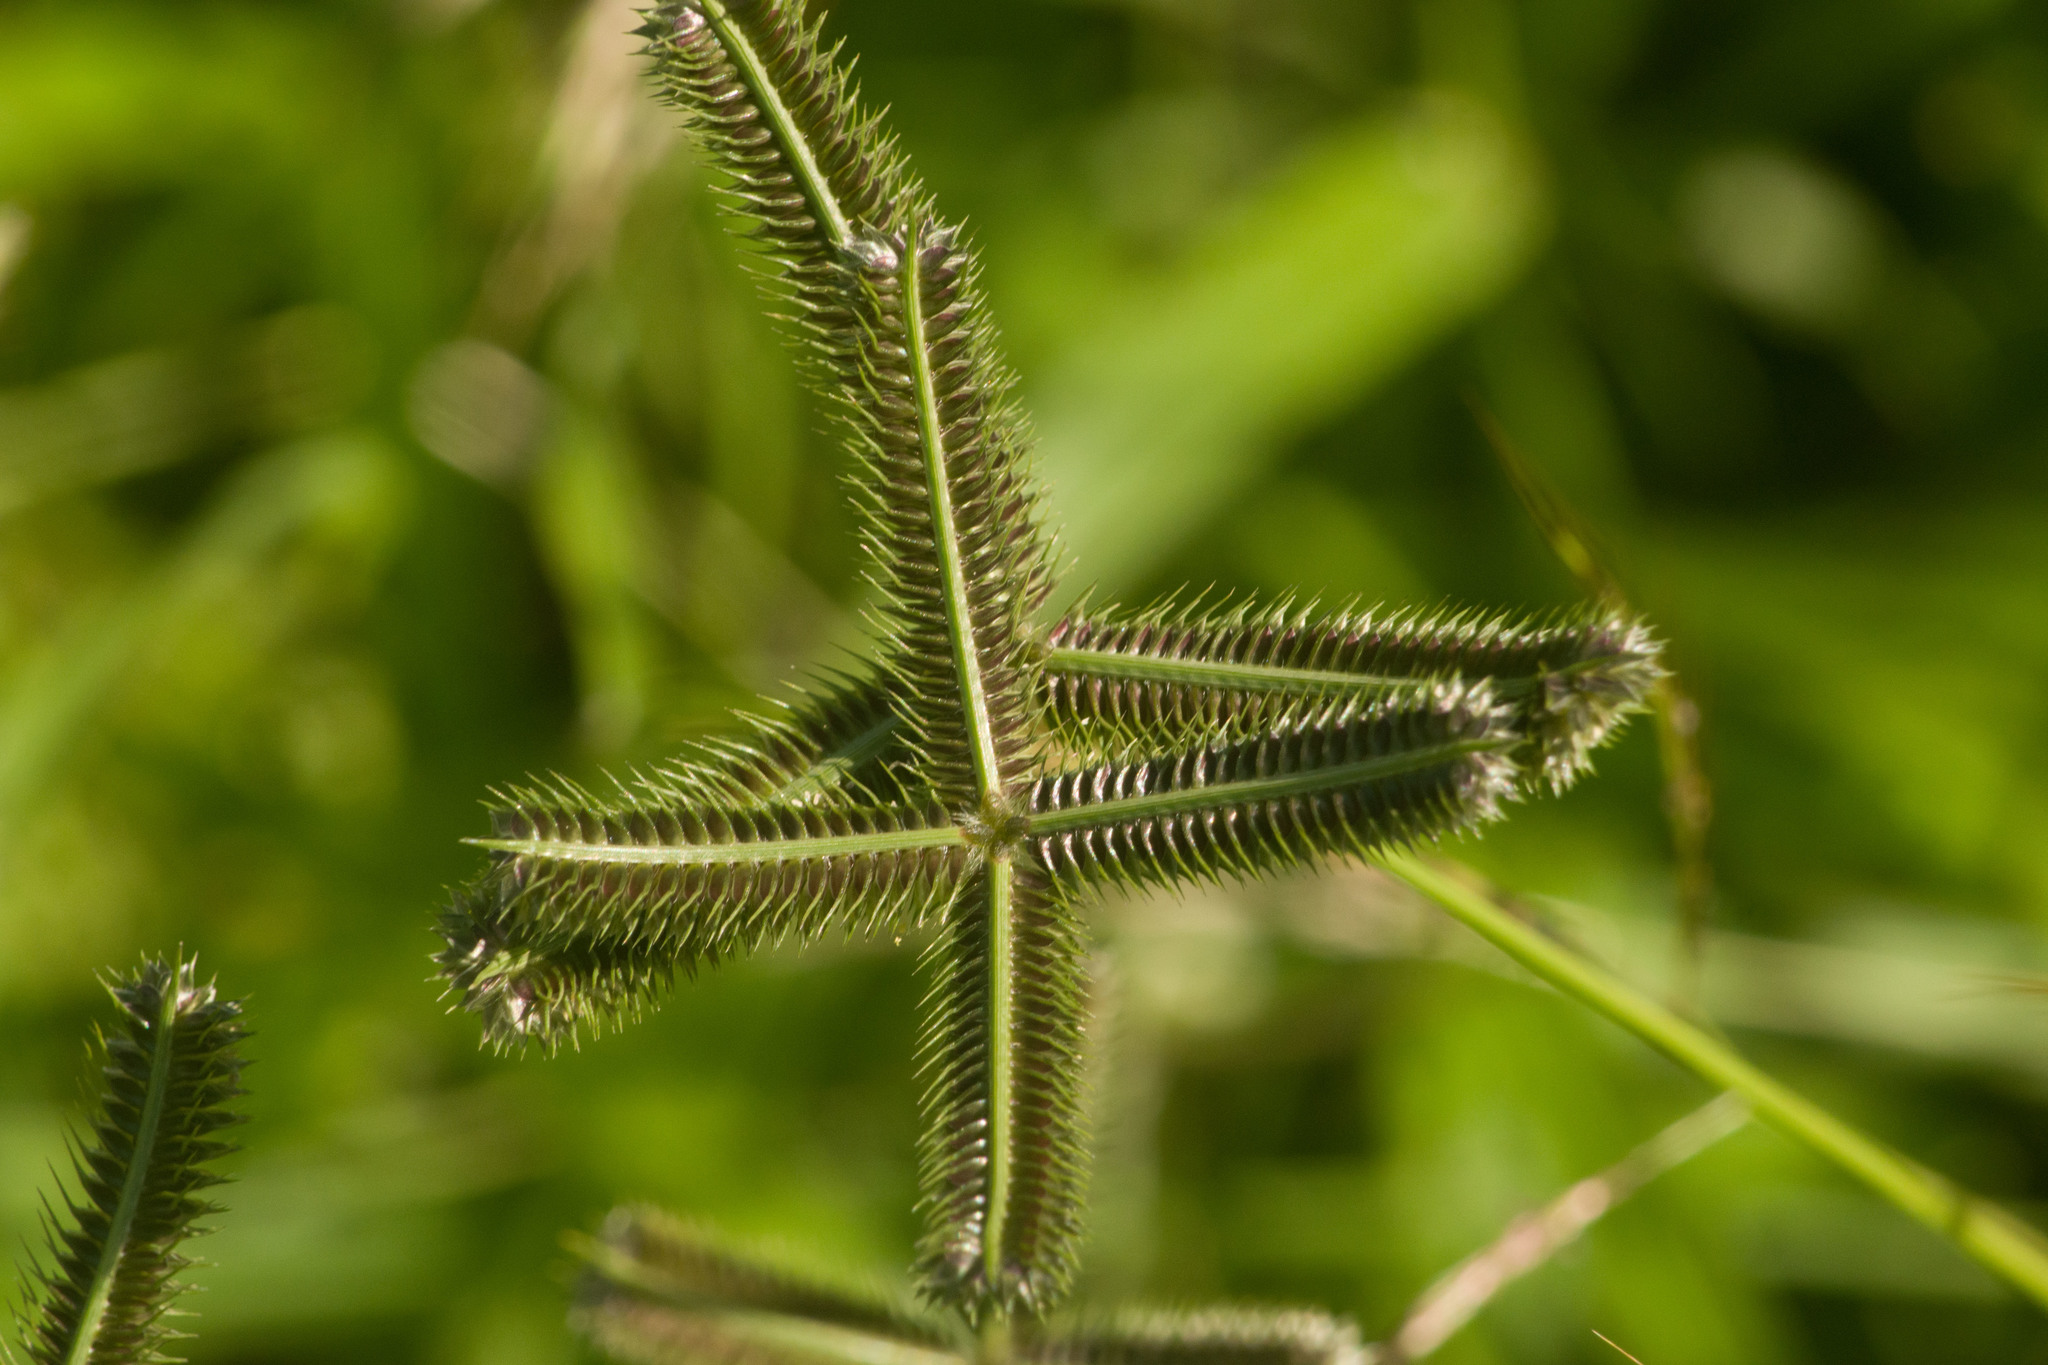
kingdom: Plantae
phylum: Tracheophyta
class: Liliopsida
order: Poales
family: Poaceae
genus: Dactyloctenium
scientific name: Dactyloctenium aegyptium
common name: Egyptian grass
